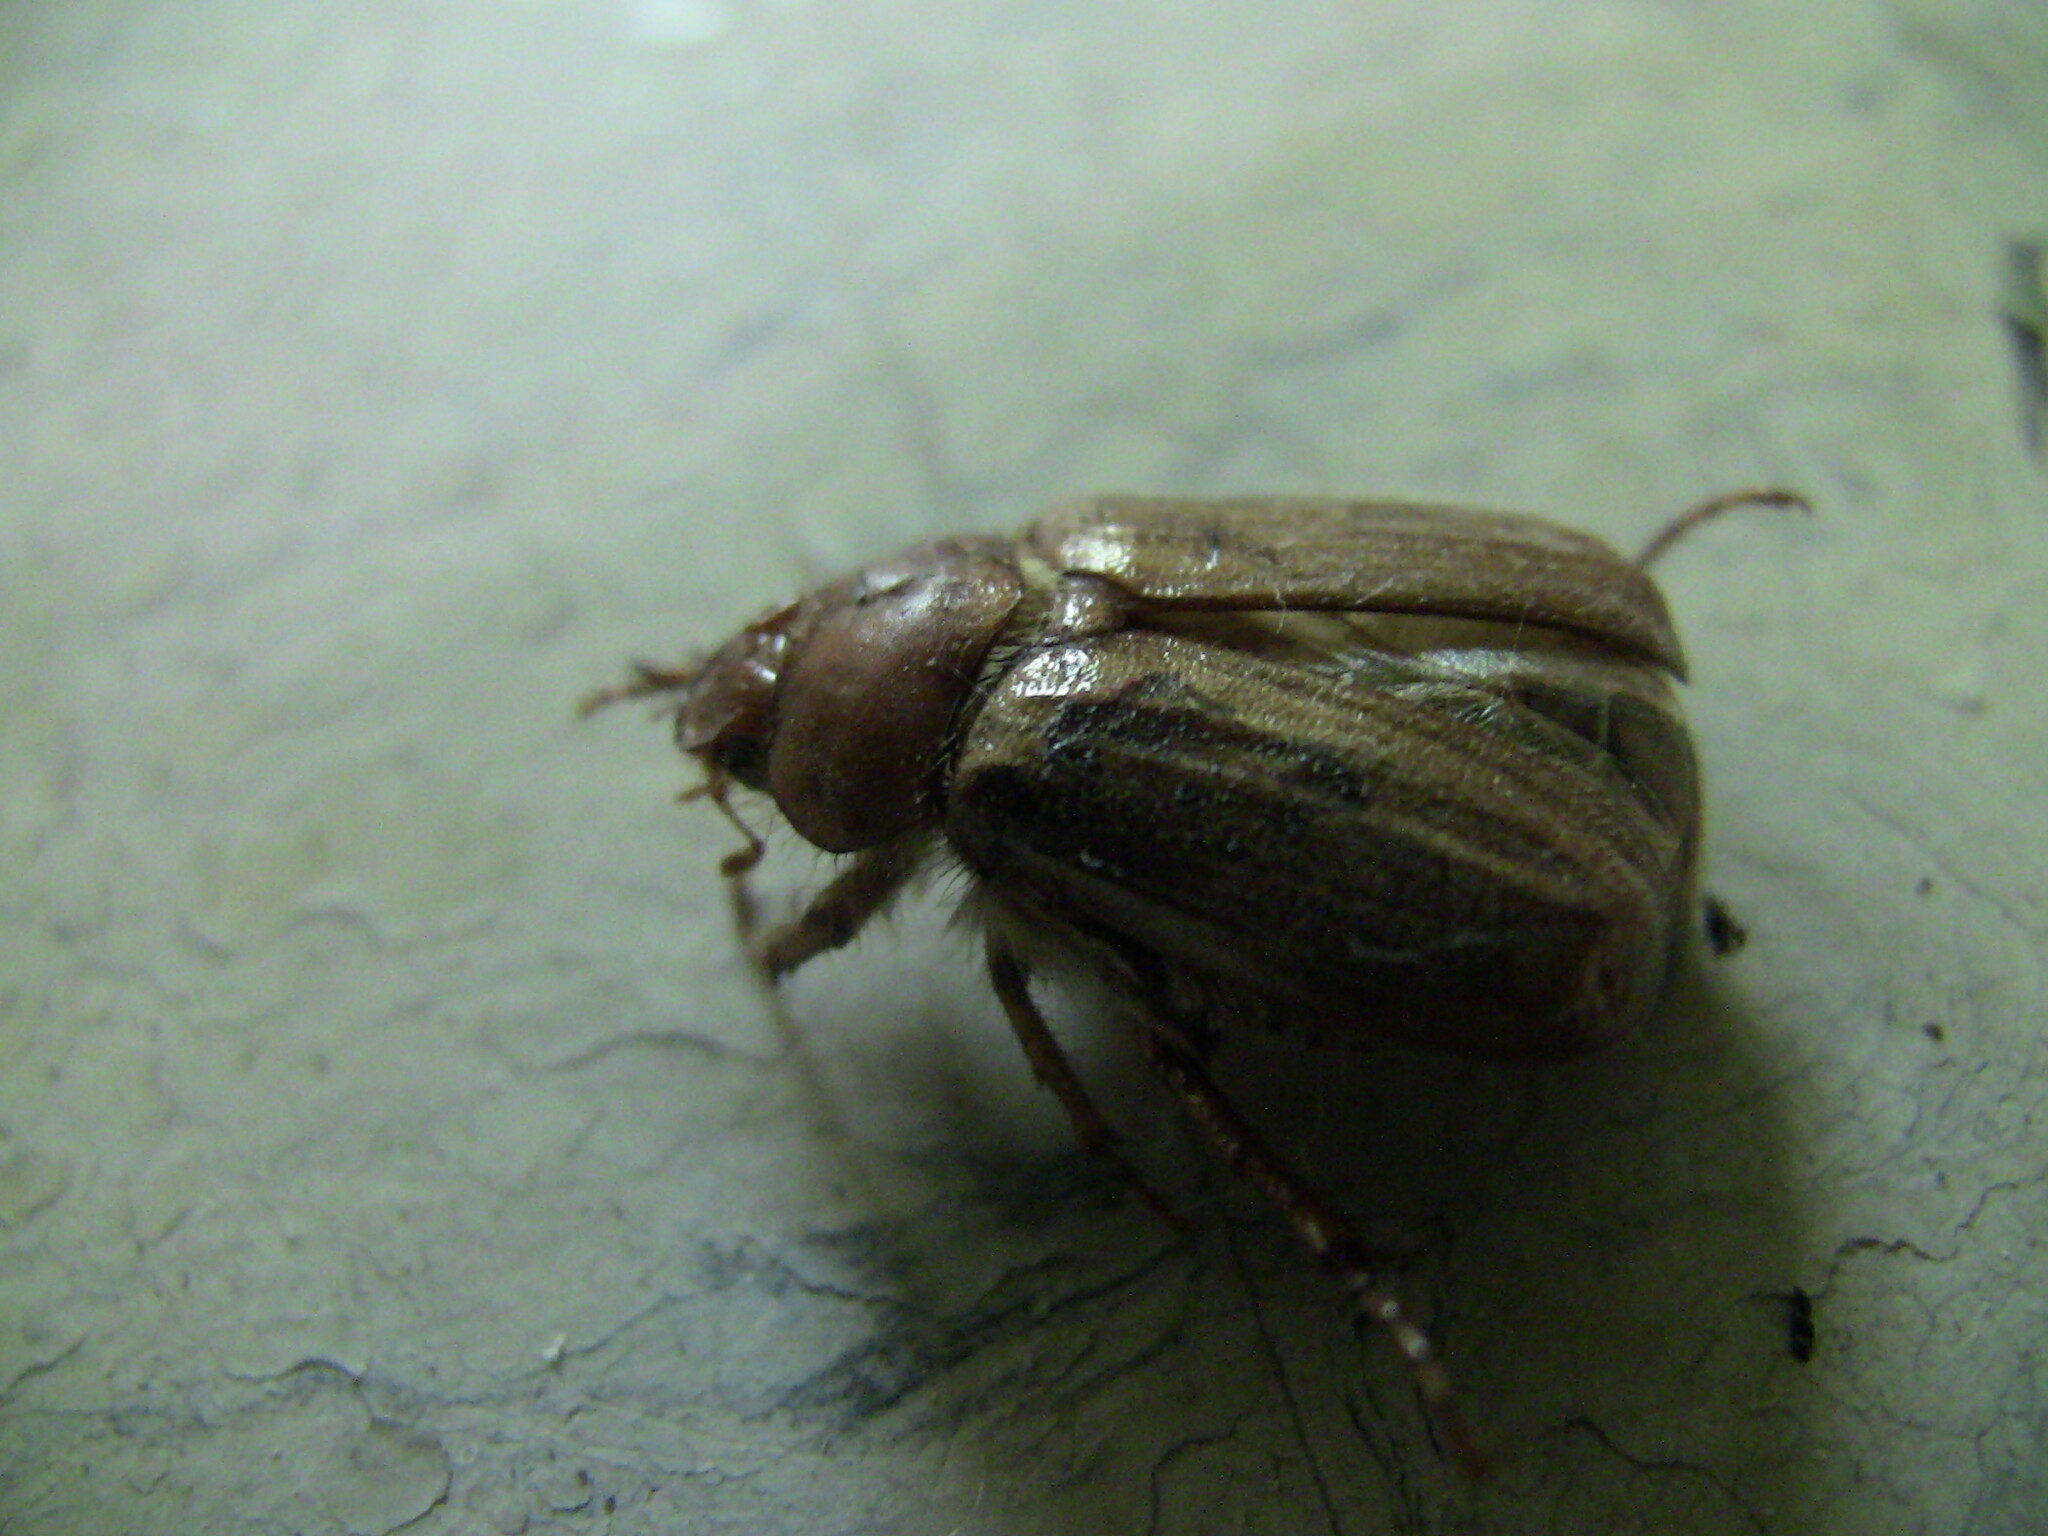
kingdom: Animalia
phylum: Arthropoda
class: Insecta
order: Coleoptera
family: Scarabaeidae
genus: Amphimallon
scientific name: Amphimallon majale
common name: European chafer
